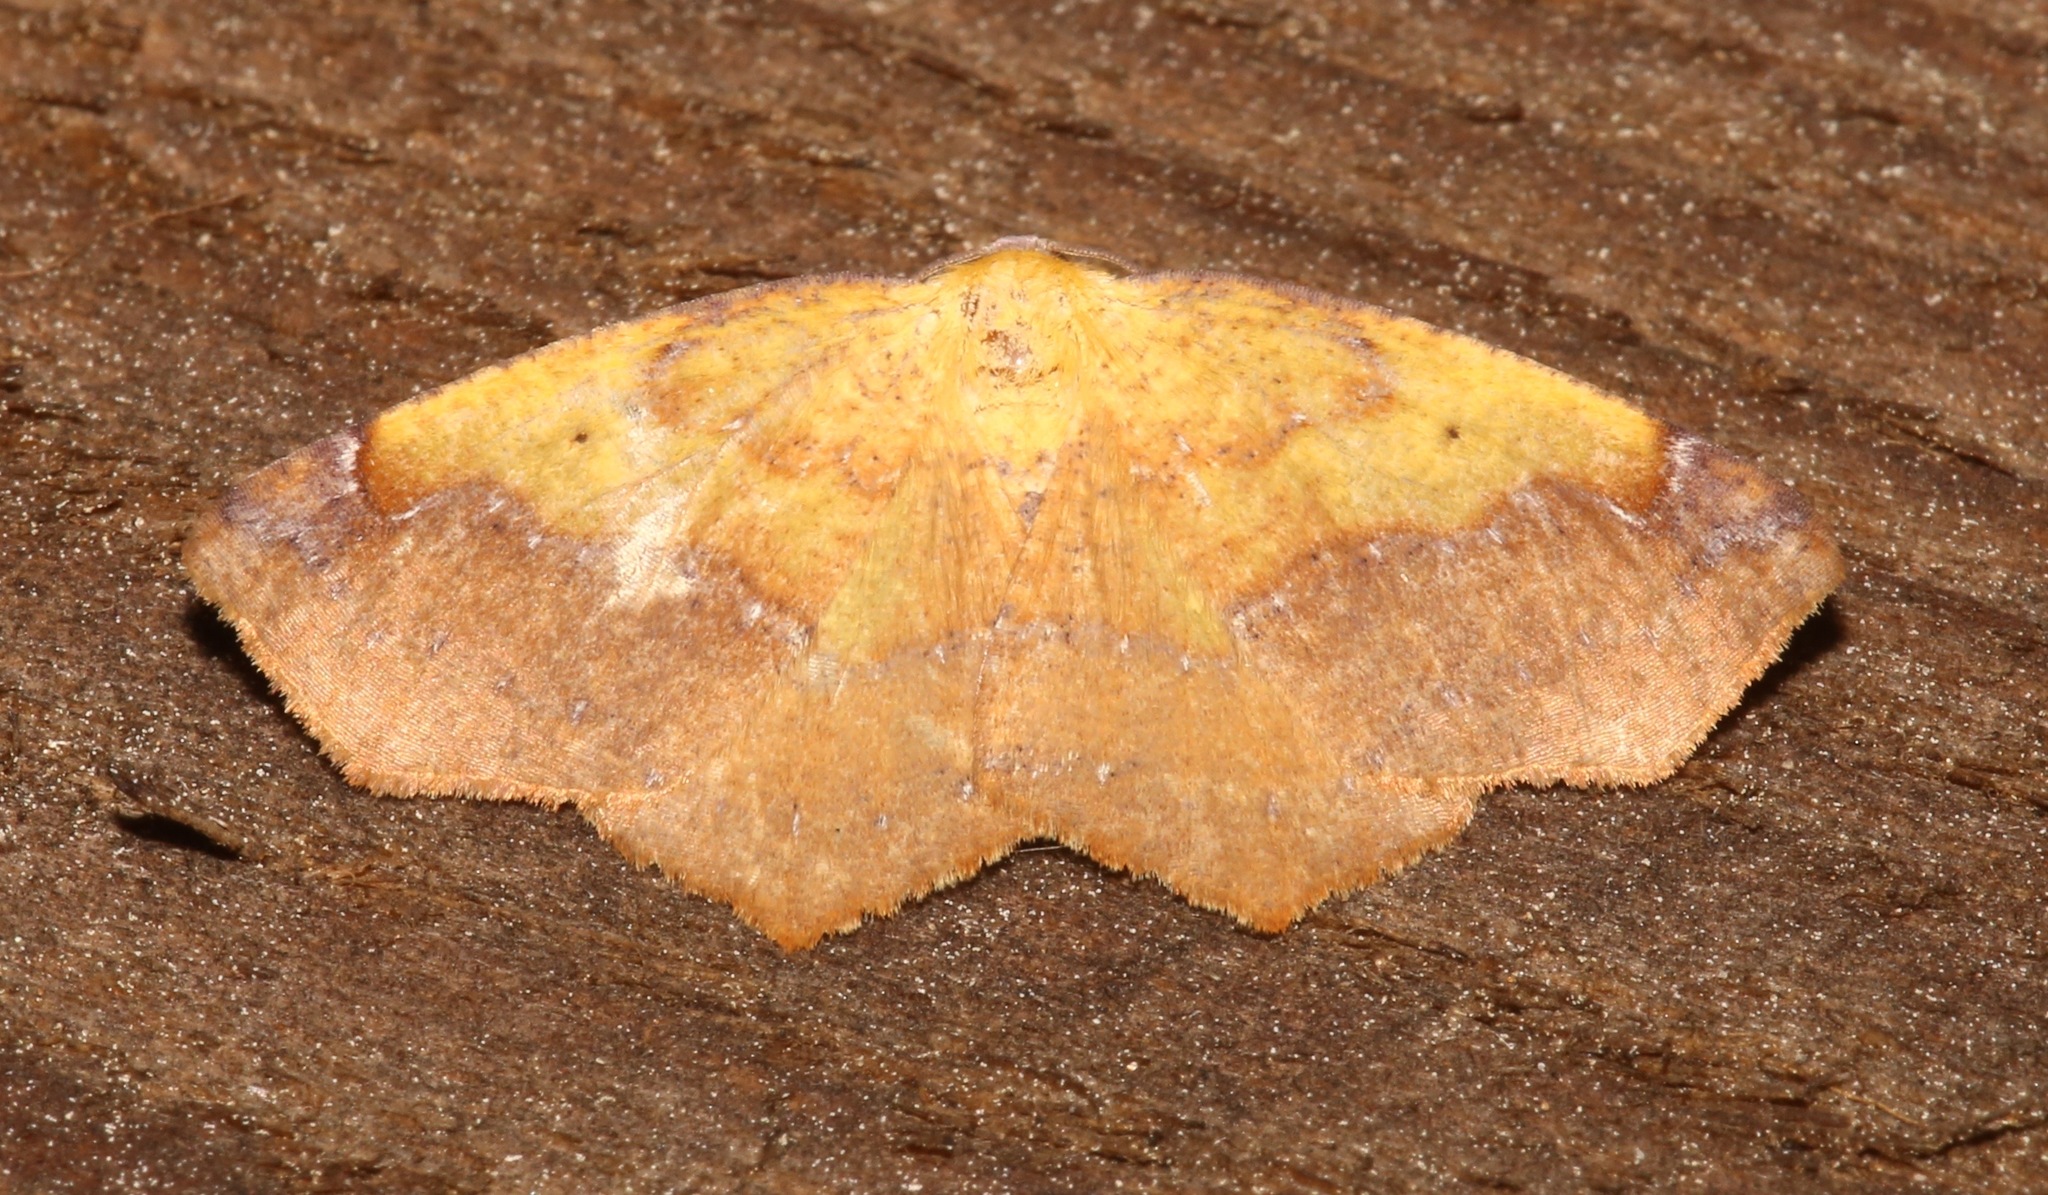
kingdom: Animalia
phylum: Arthropoda
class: Insecta
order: Lepidoptera
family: Geometridae
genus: Antepione
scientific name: Antepione thisoaria
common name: Variable antipione
